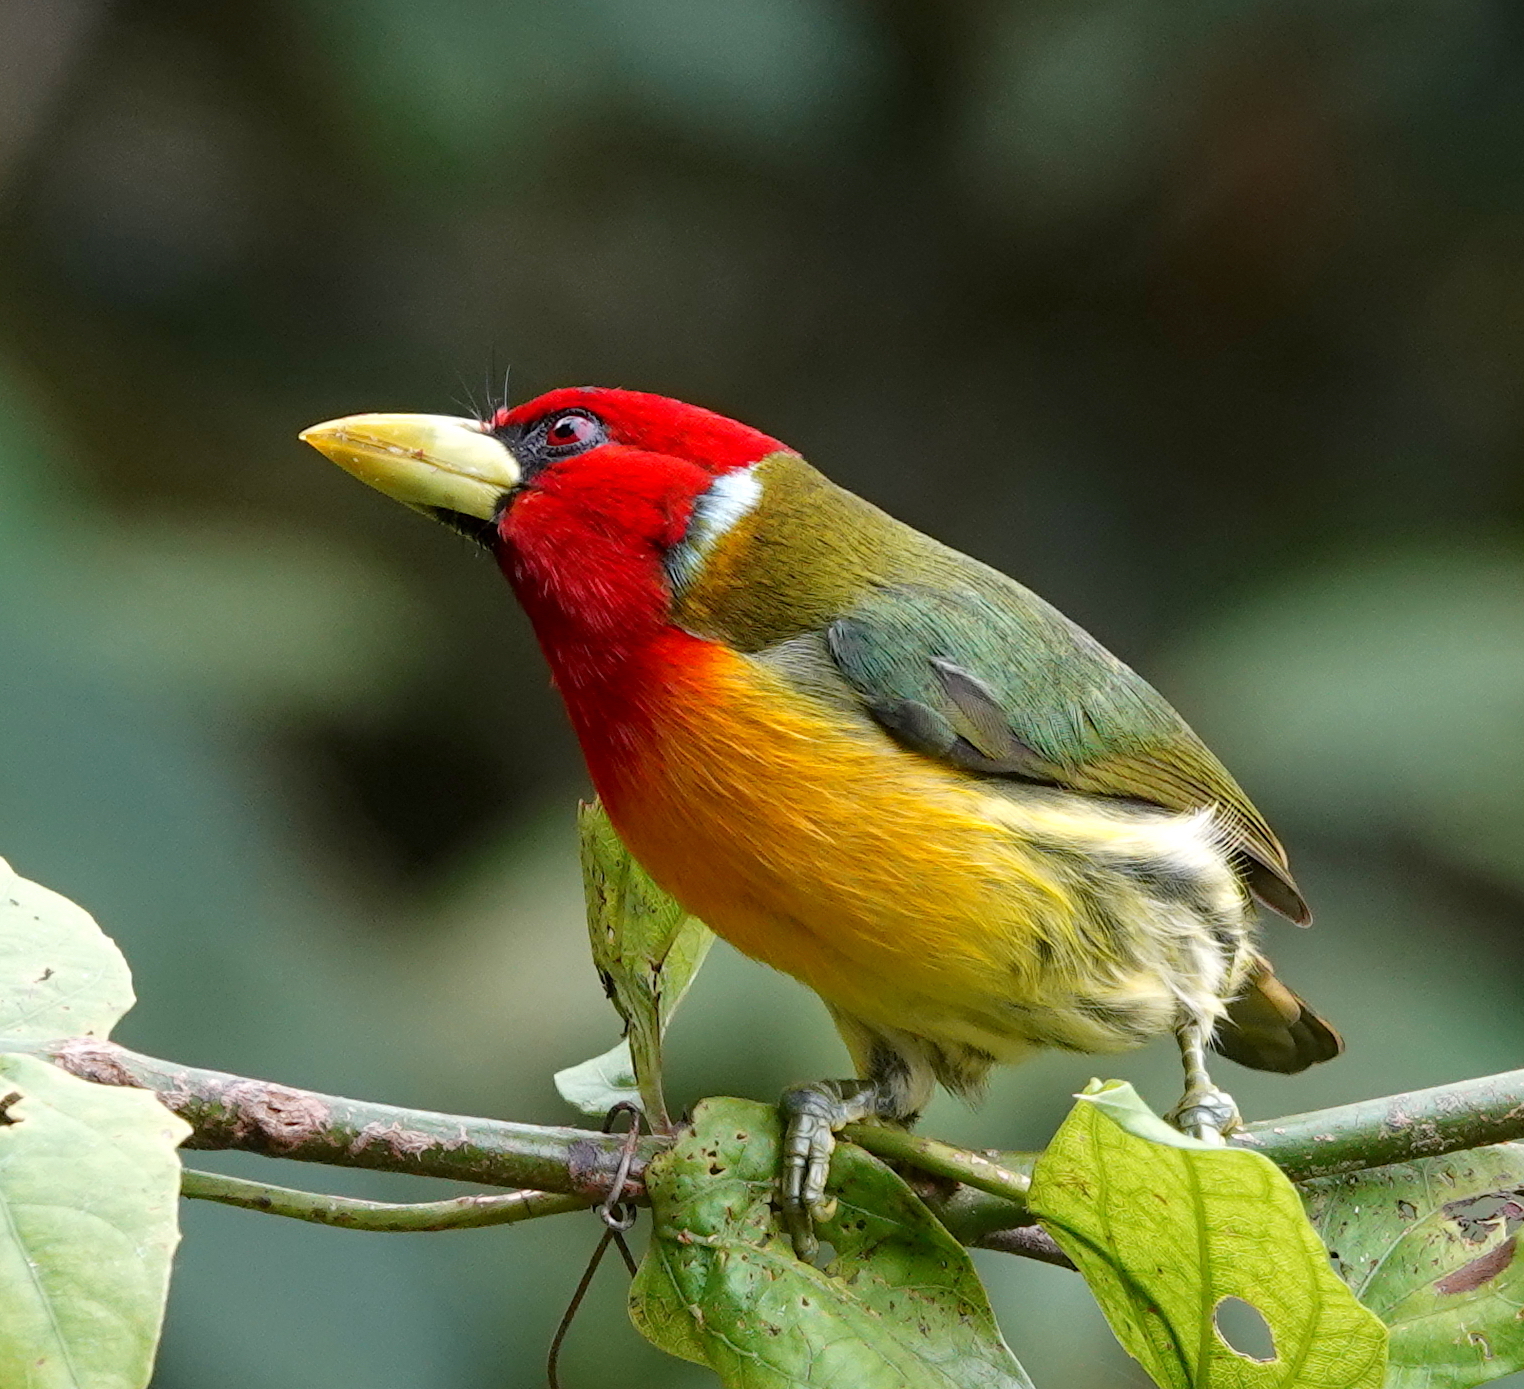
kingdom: Animalia
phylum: Chordata
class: Aves
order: Piciformes
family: Capitonidae
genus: Eubucco
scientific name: Eubucco bourcierii
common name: Red-headed barbet
